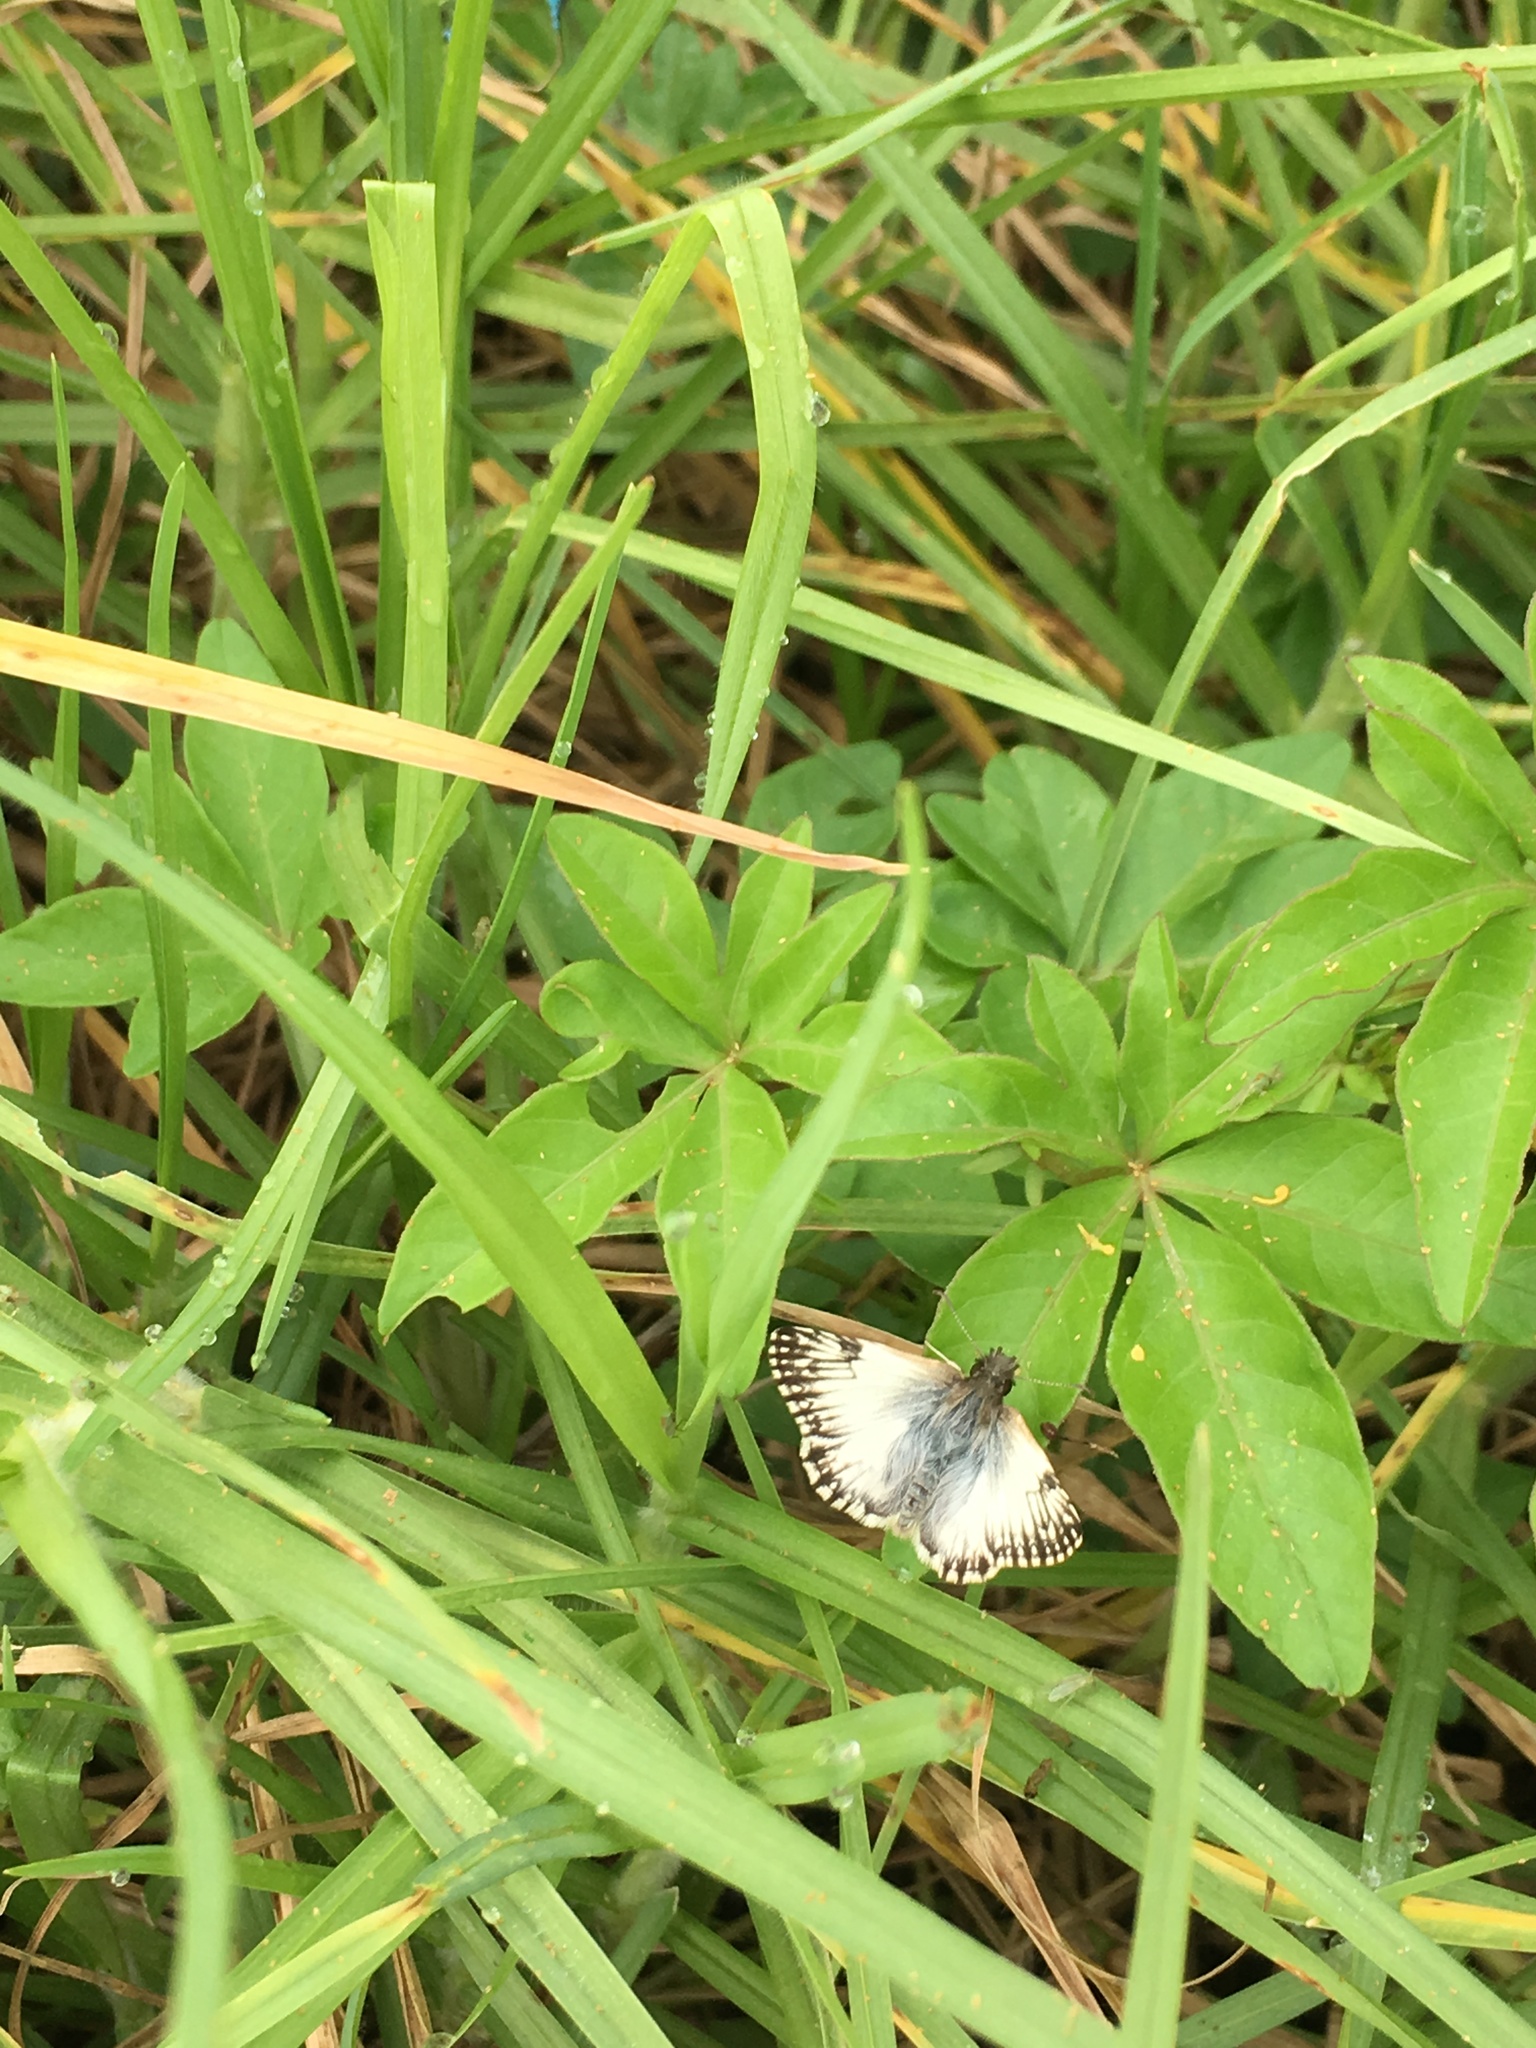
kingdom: Animalia
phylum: Arthropoda
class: Insecta
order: Lepidoptera
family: Hesperiidae
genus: Heliopetes
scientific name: Heliopetes omrina
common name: Stained white-skipper
